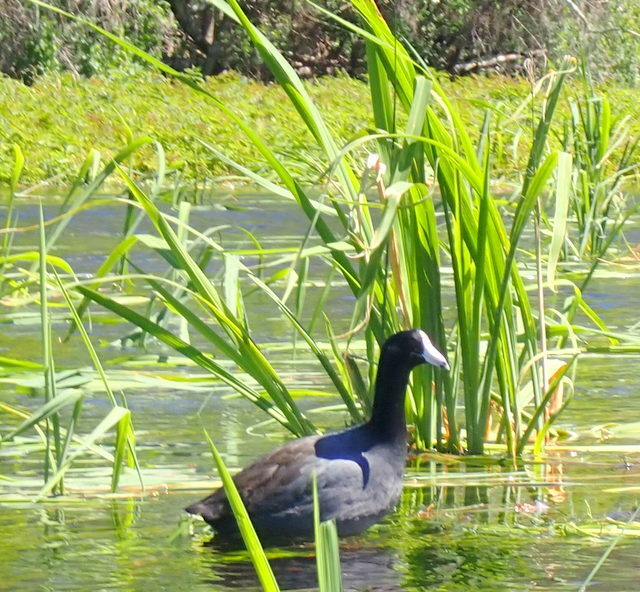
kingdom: Animalia
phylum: Chordata
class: Aves
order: Gruiformes
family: Rallidae
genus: Fulica
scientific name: Fulica americana
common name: American coot
